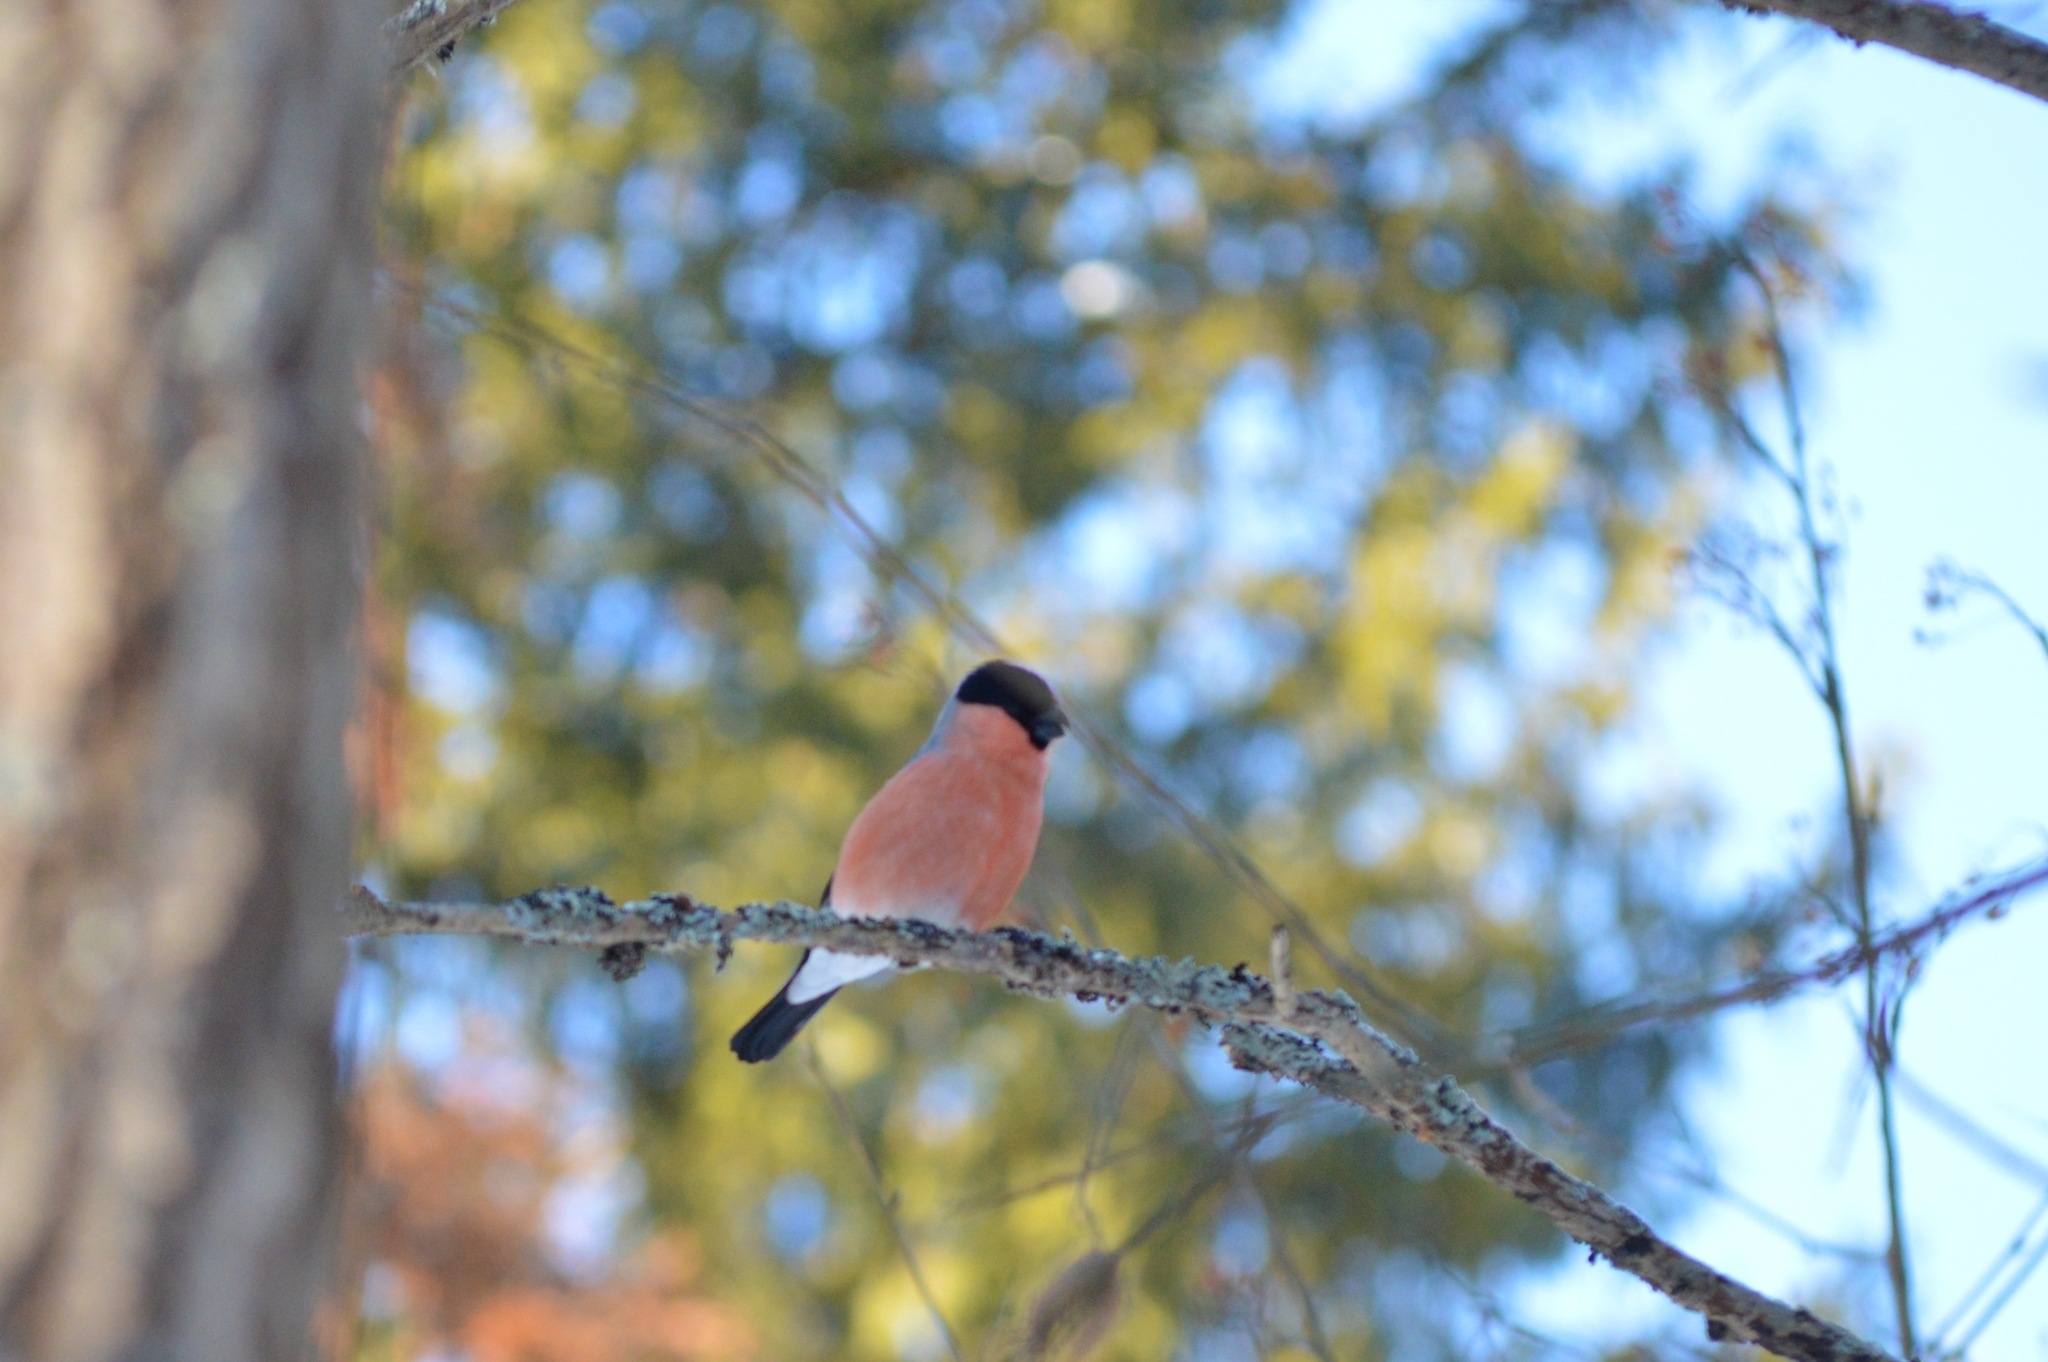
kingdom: Animalia
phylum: Chordata
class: Aves
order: Passeriformes
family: Fringillidae
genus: Pyrrhula
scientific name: Pyrrhula pyrrhula
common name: Eurasian bullfinch
